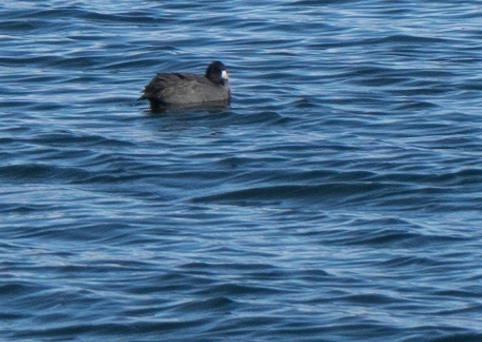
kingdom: Animalia
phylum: Chordata
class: Aves
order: Gruiformes
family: Rallidae
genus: Fulica
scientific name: Fulica americana
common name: American coot
